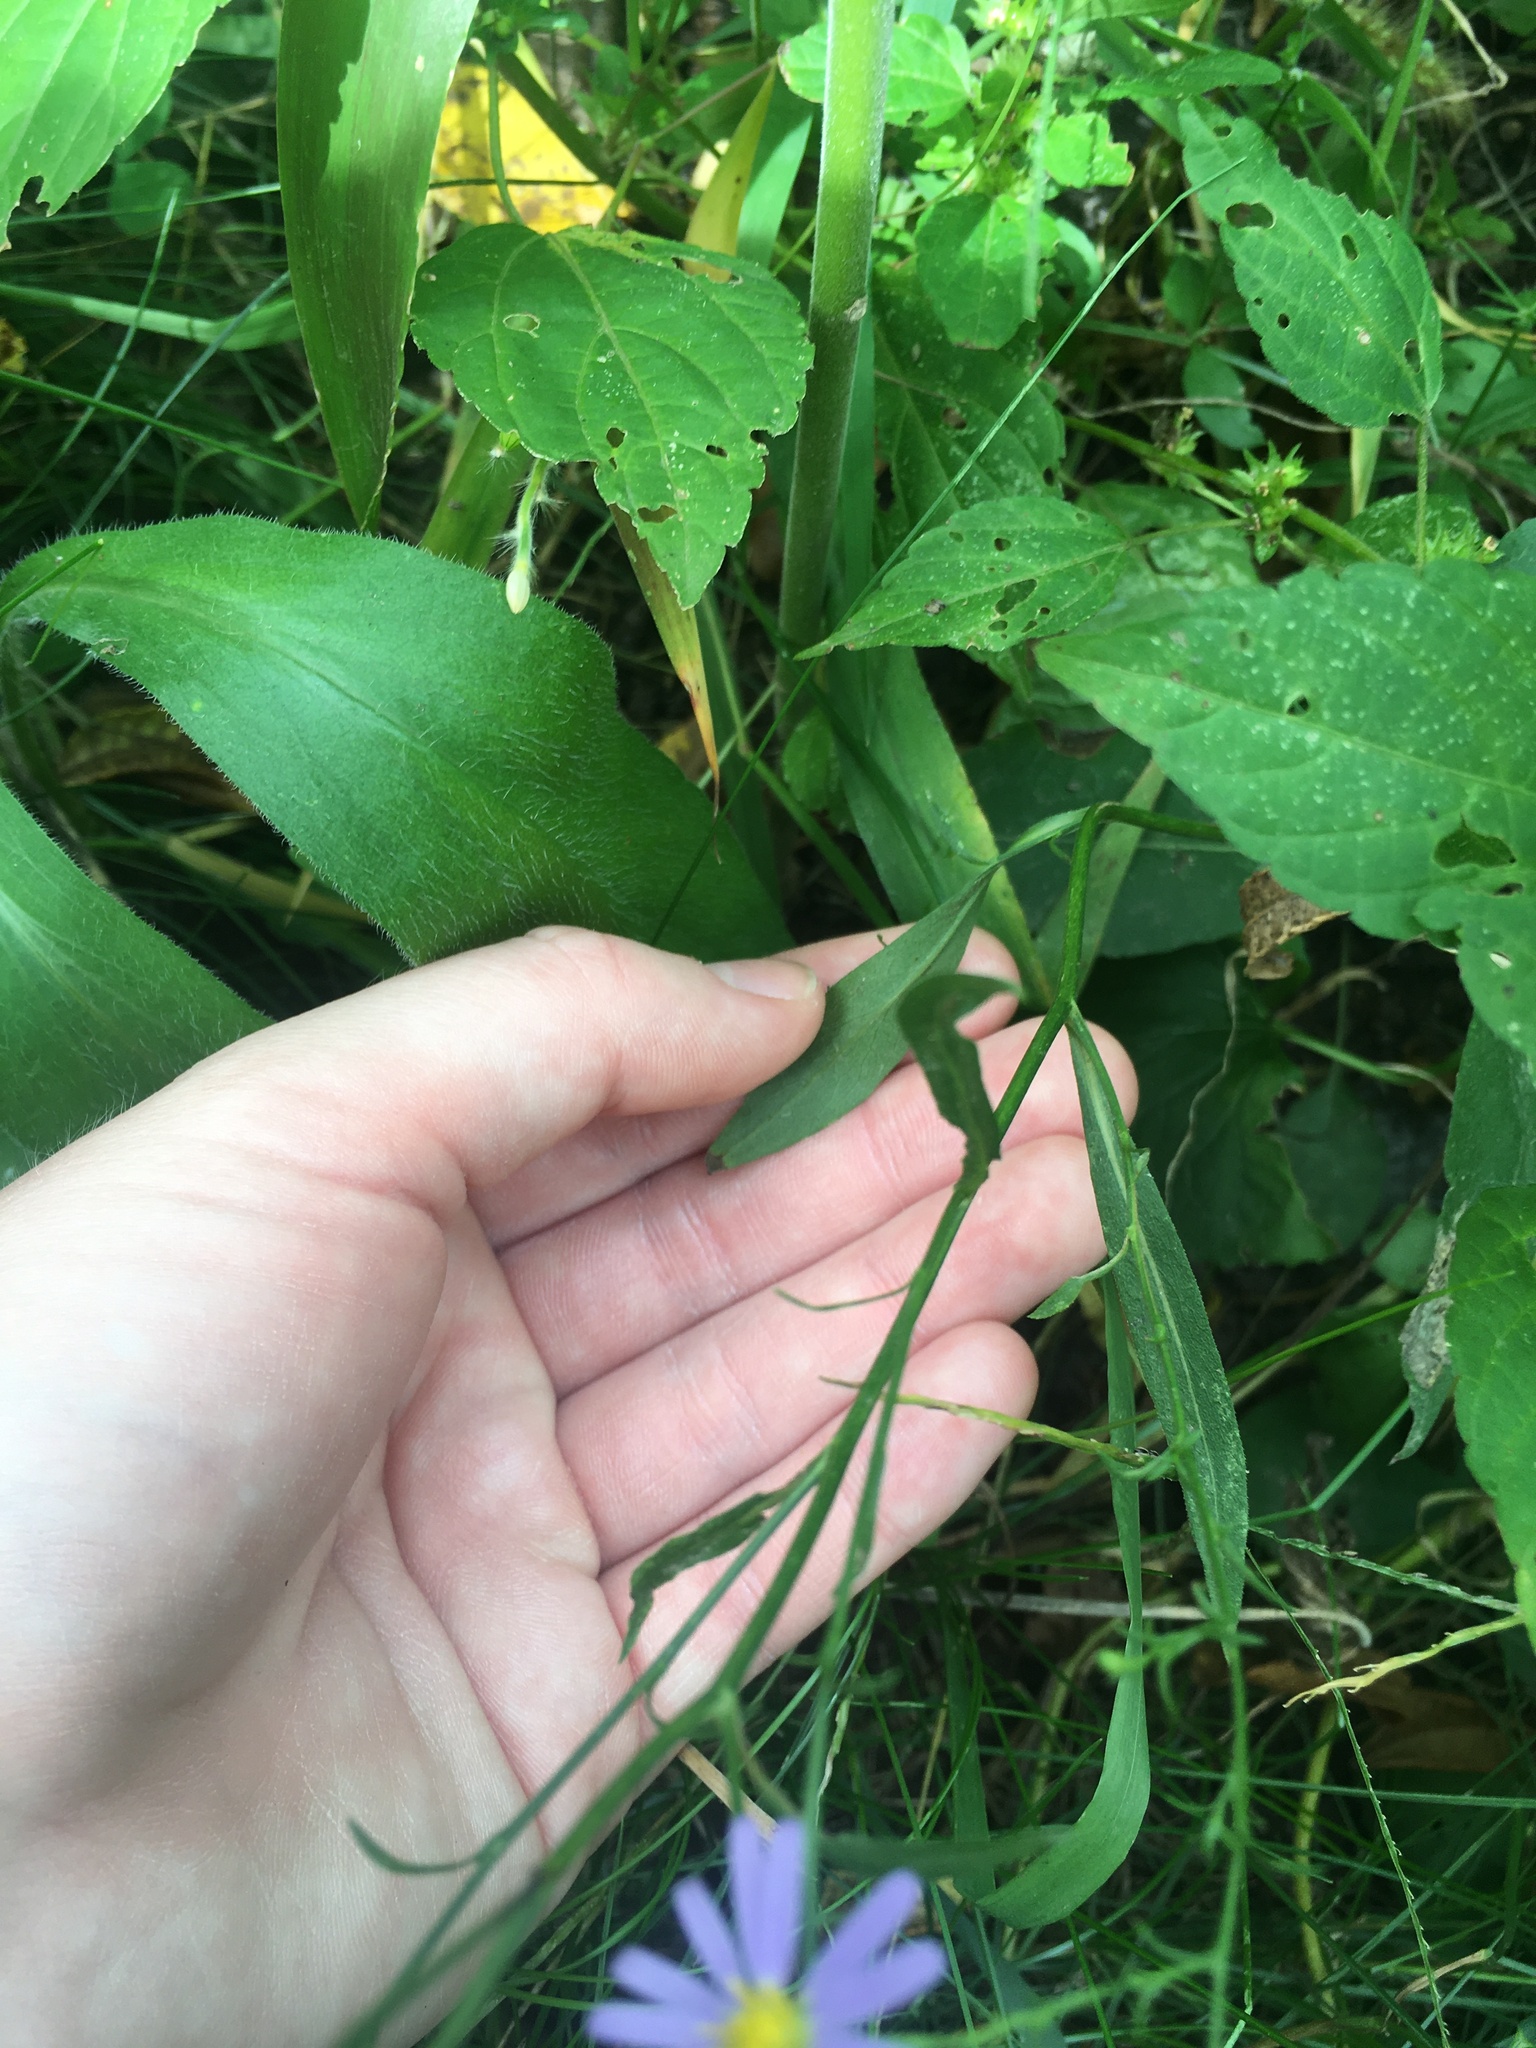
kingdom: Plantae
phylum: Tracheophyta
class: Magnoliopsida
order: Asterales
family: Asteraceae
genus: Symphyotrichum
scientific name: Symphyotrichum oolentangiense
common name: Azure aster
